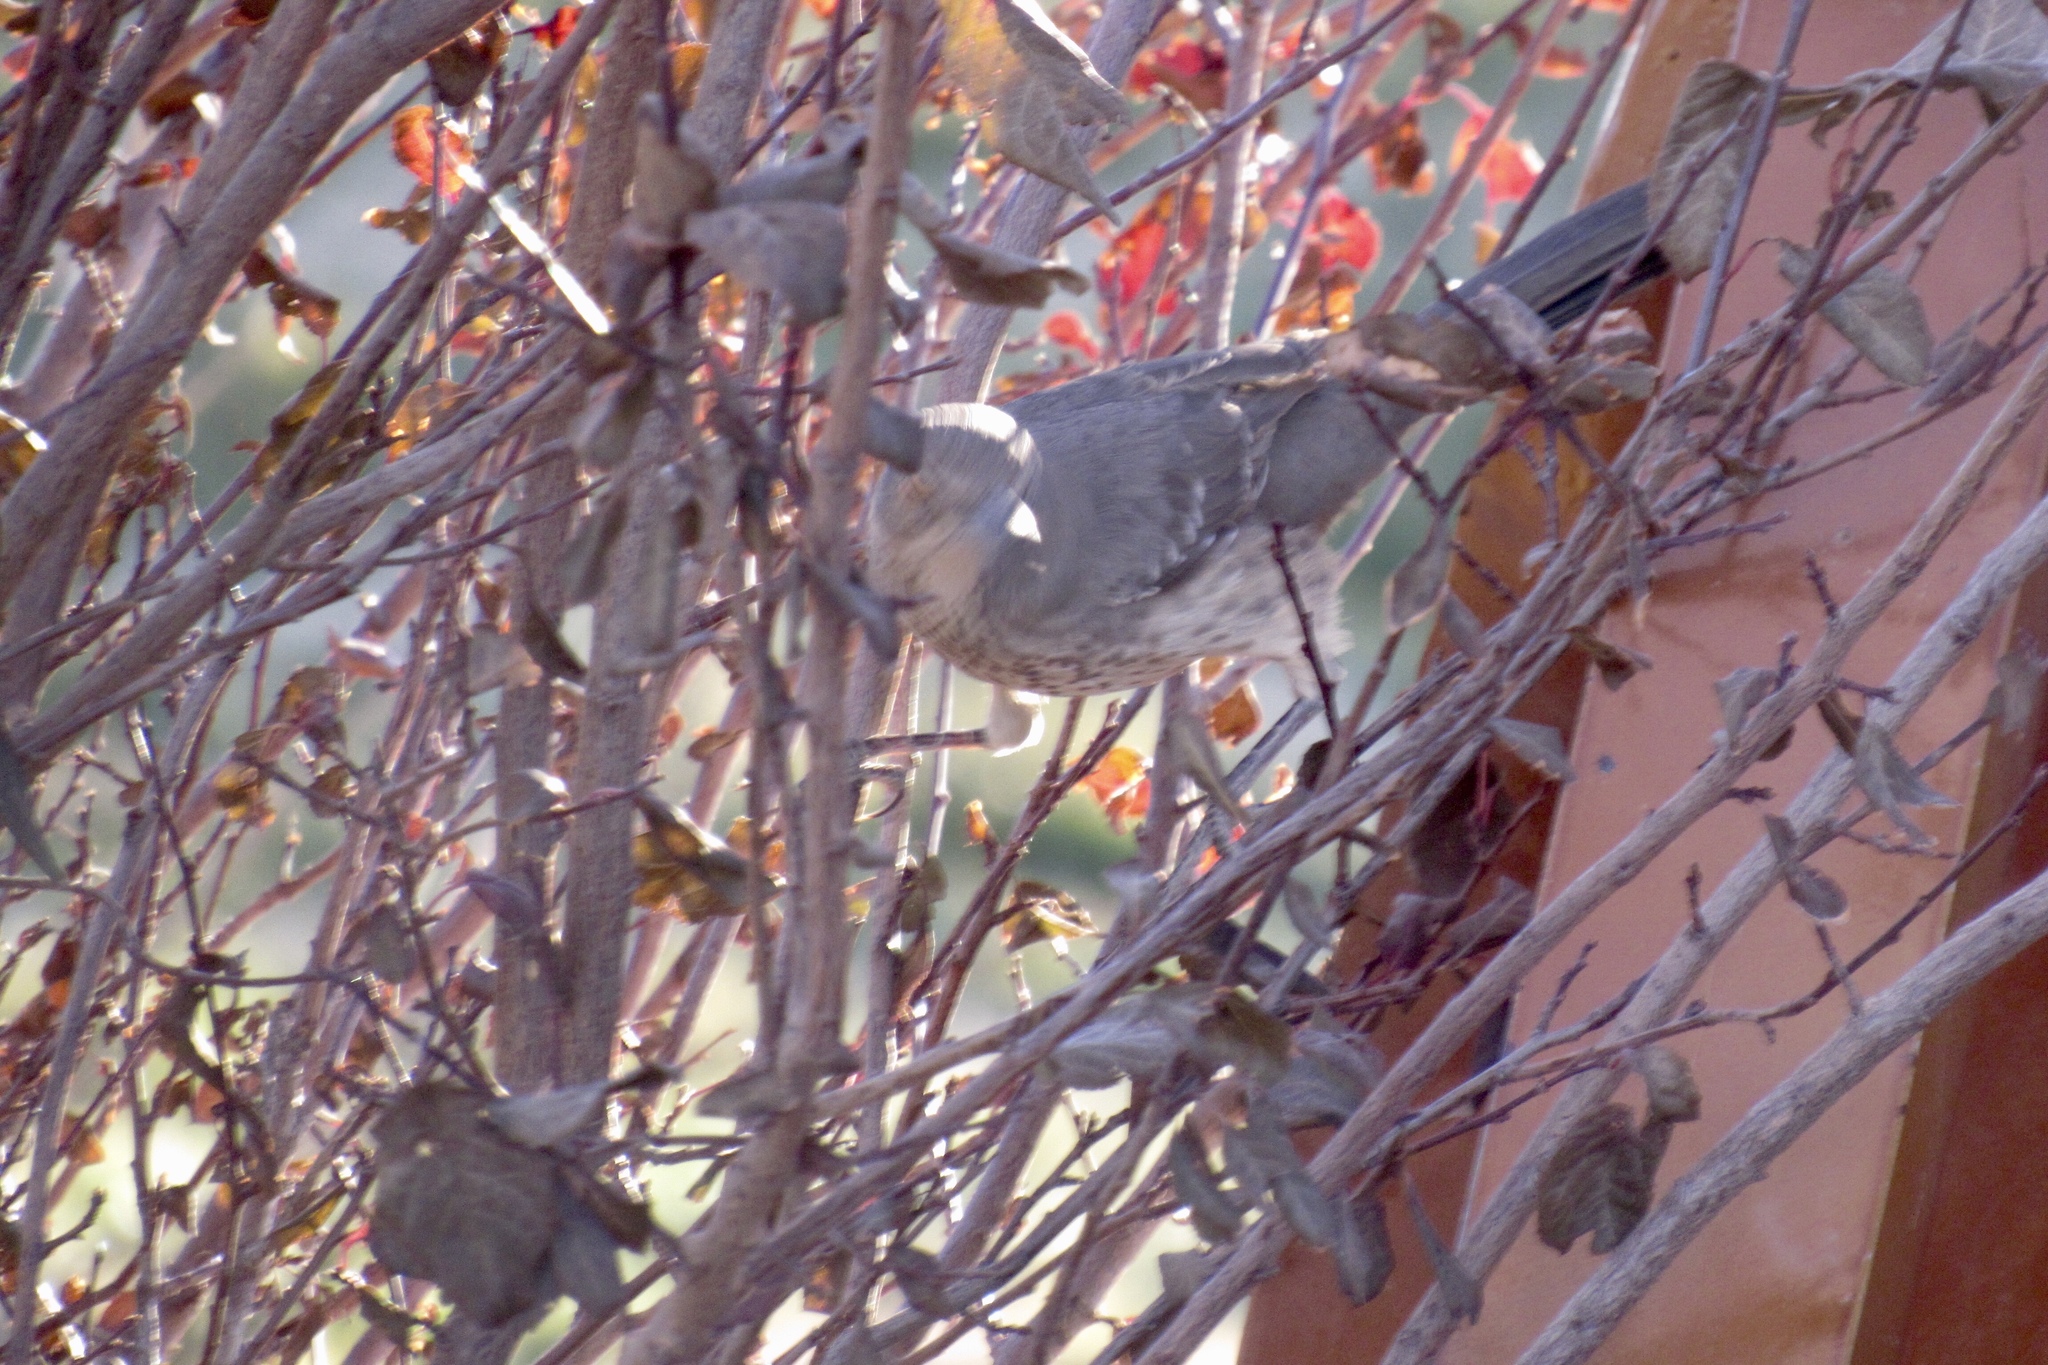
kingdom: Animalia
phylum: Chordata
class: Aves
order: Passeriformes
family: Mimidae
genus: Oreoscoptes
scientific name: Oreoscoptes montanus
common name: Sage thrasher
